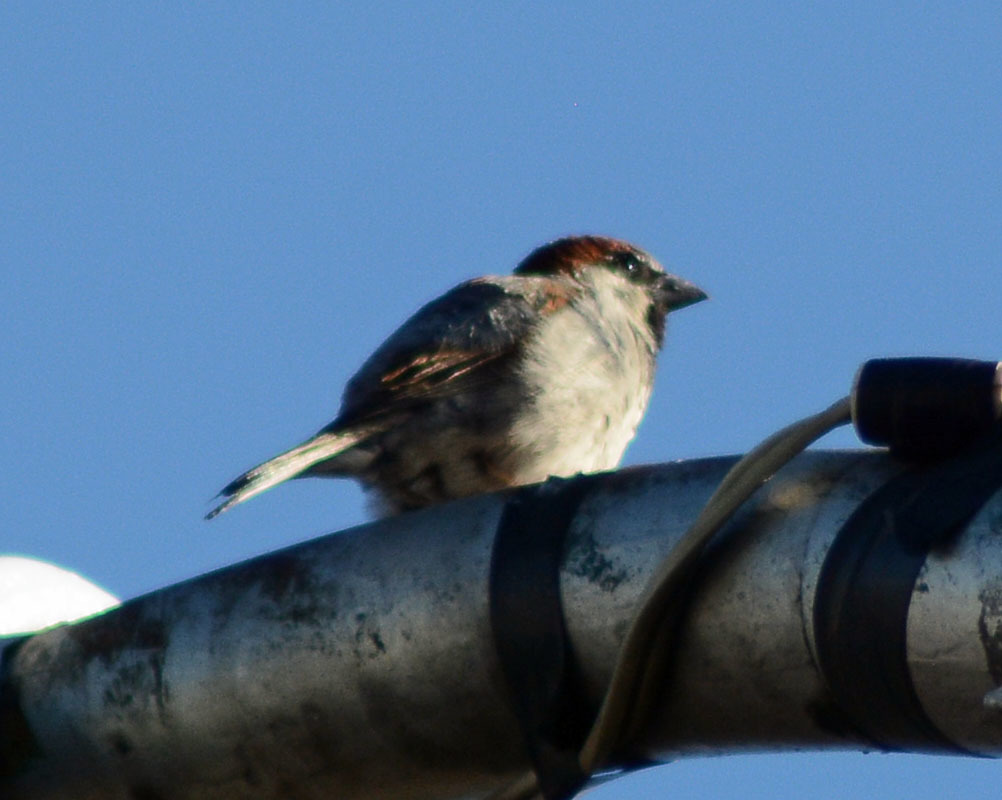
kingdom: Animalia
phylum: Chordata
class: Aves
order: Passeriformes
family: Passeridae
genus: Passer
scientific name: Passer domesticus
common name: House sparrow
